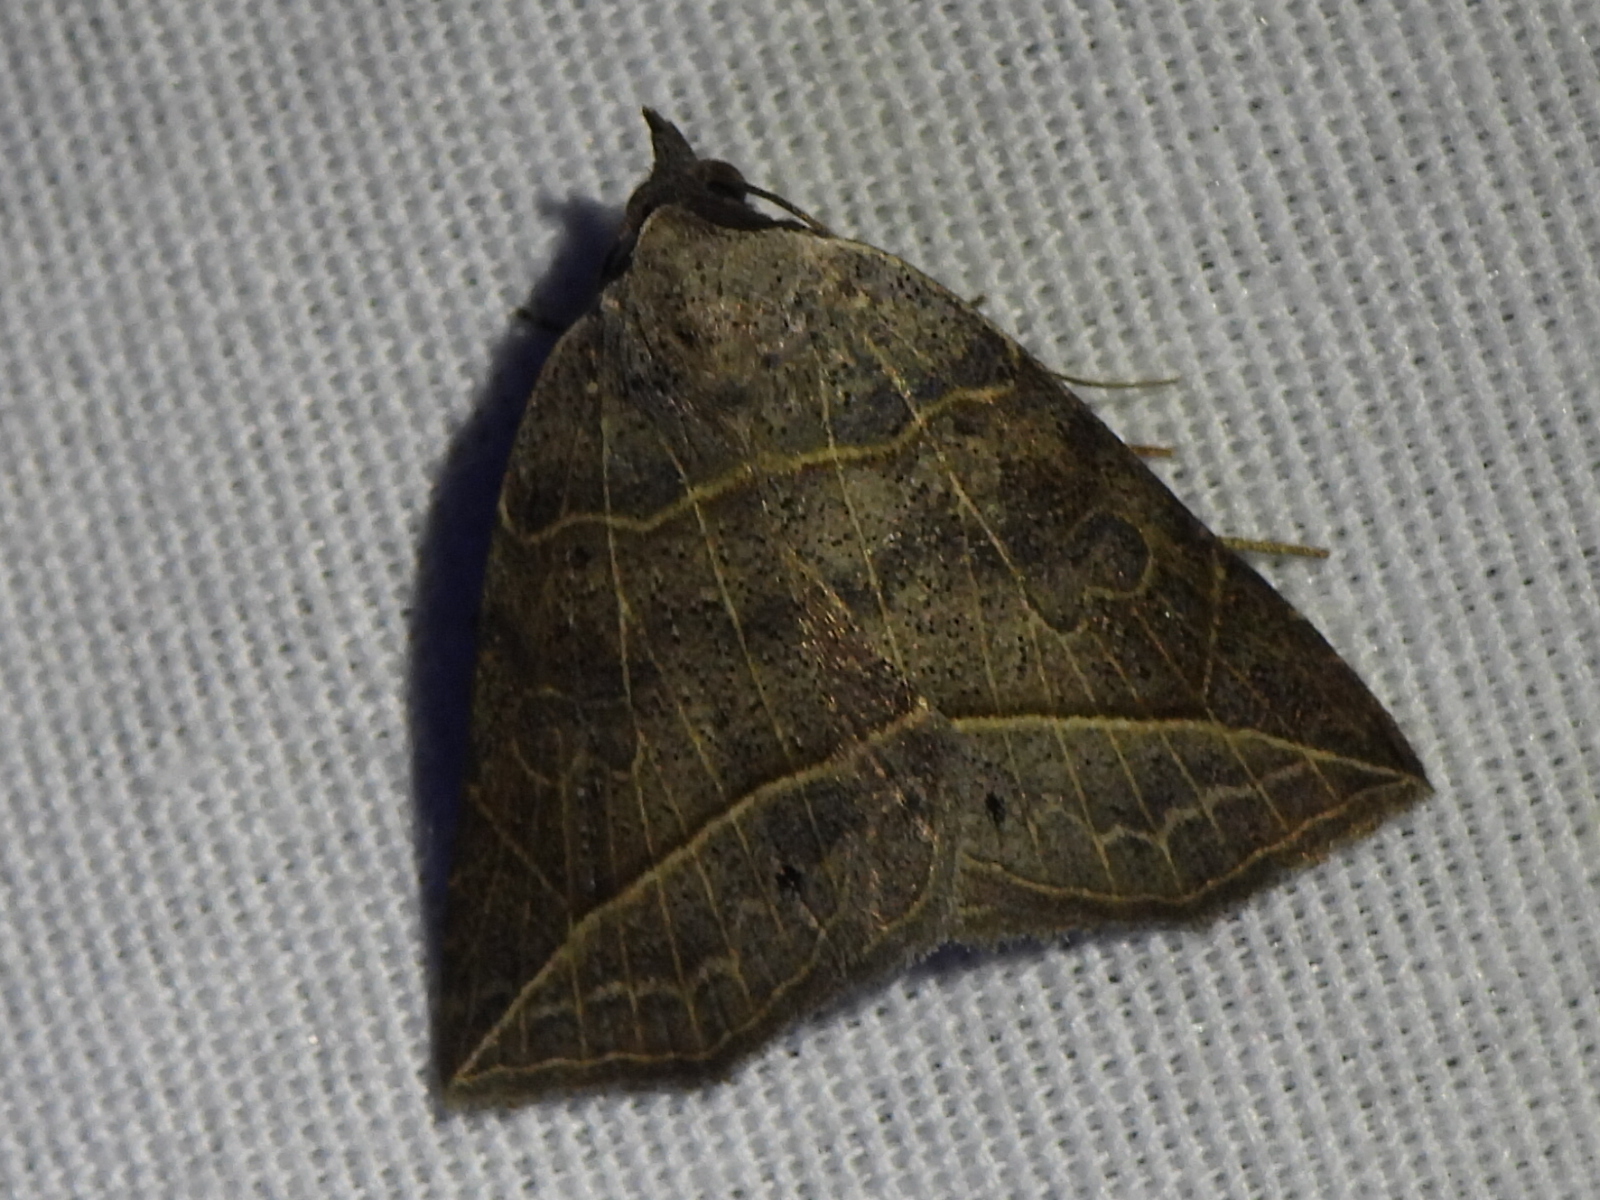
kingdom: Animalia
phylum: Arthropoda
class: Insecta
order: Lepidoptera
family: Erebidae
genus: Isogona
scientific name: Isogona tenuis
